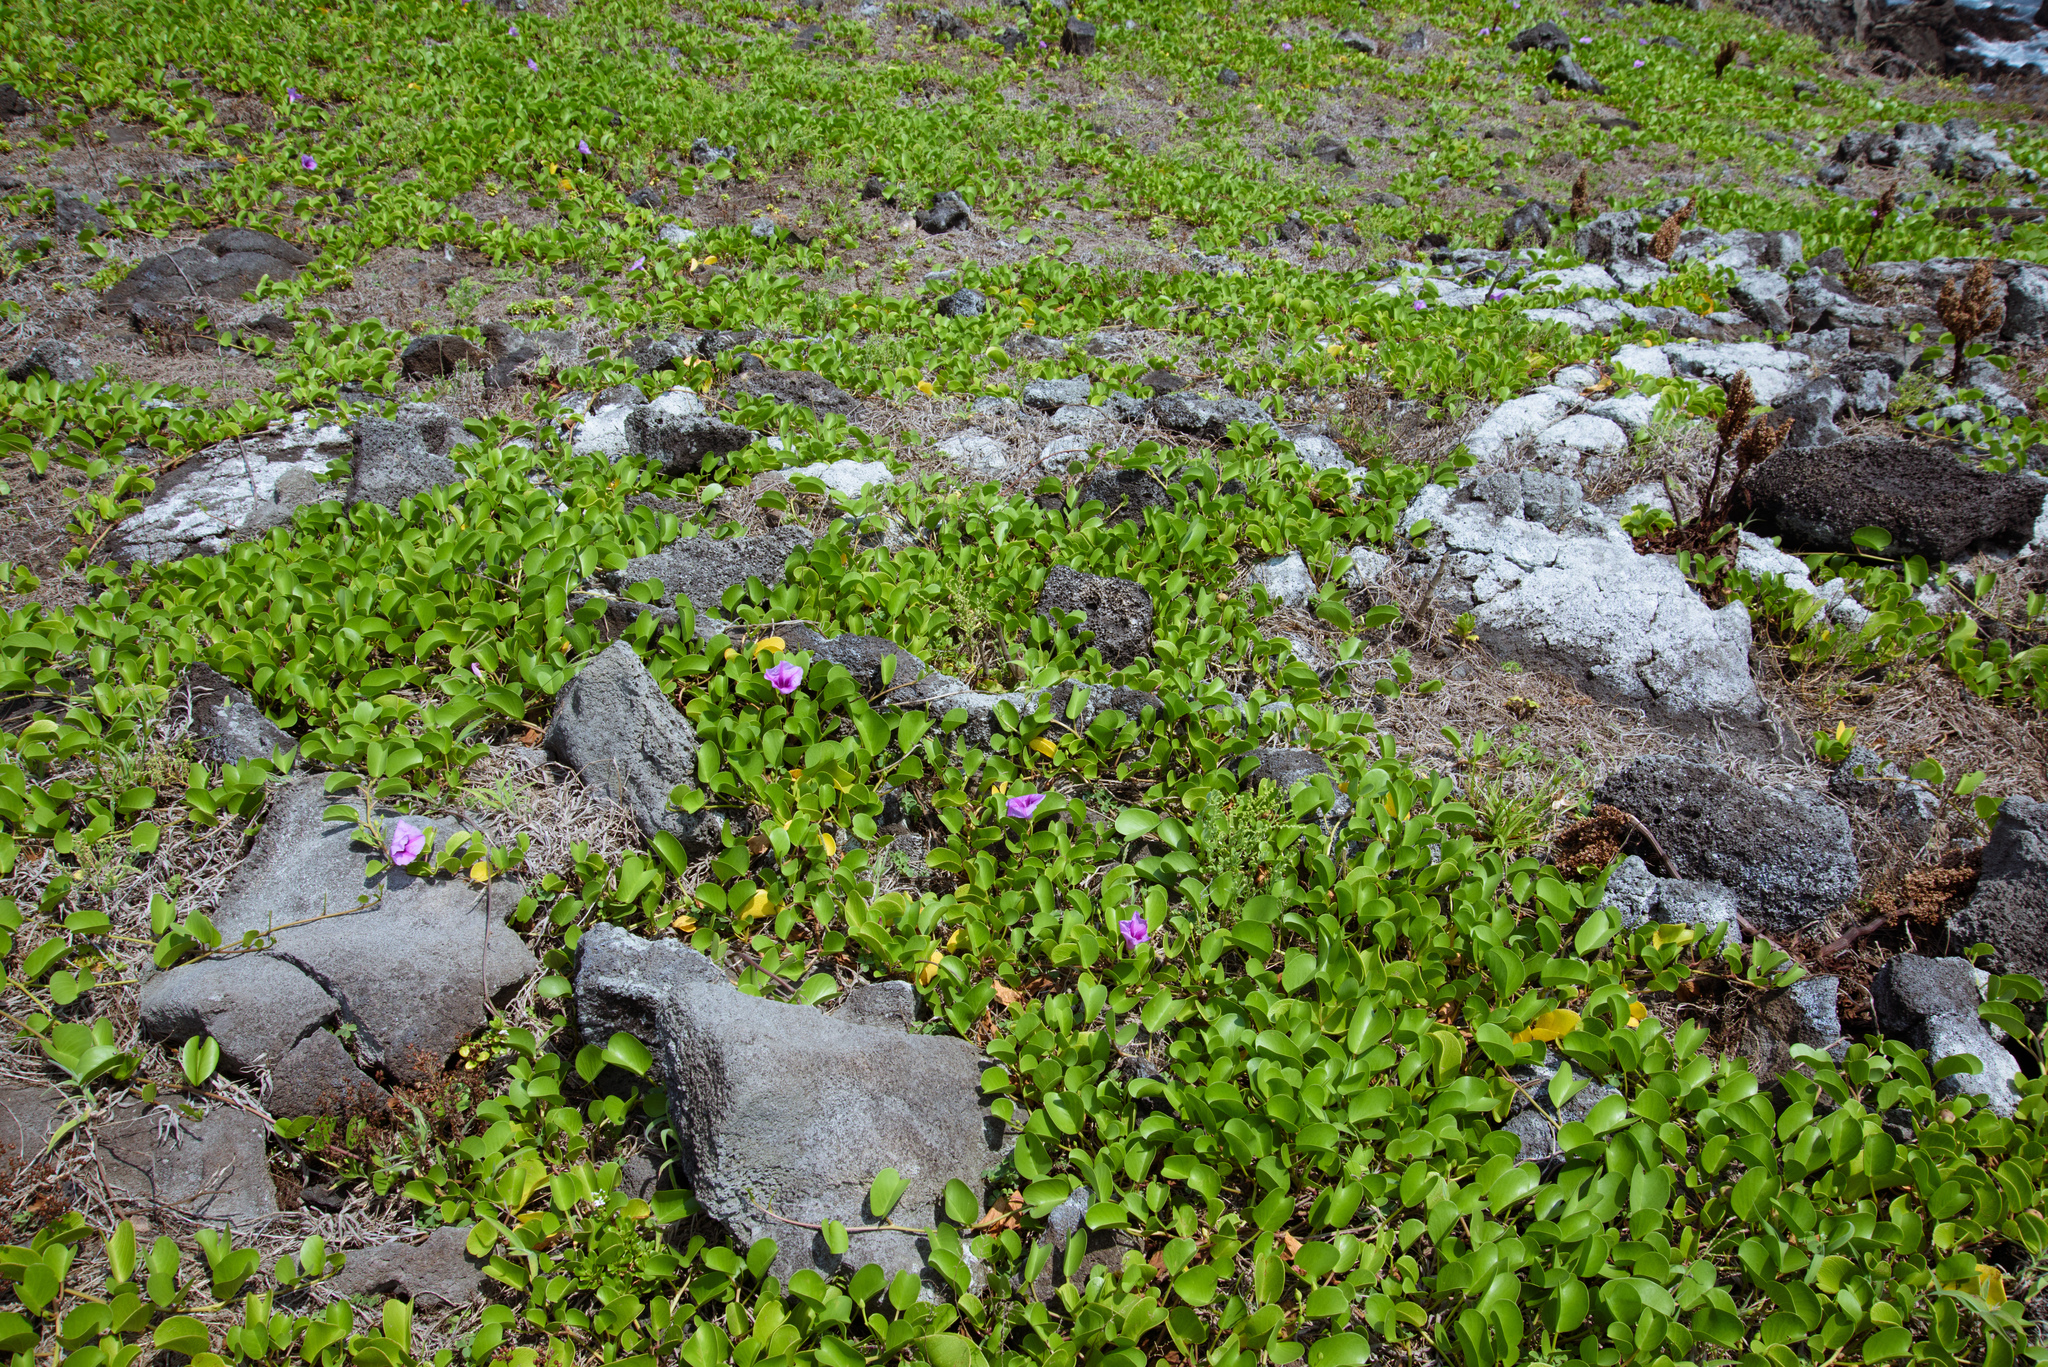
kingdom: Plantae
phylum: Tracheophyta
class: Magnoliopsida
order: Solanales
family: Convolvulaceae
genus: Ipomoea
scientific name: Ipomoea pes-caprae
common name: Beach morning glory
